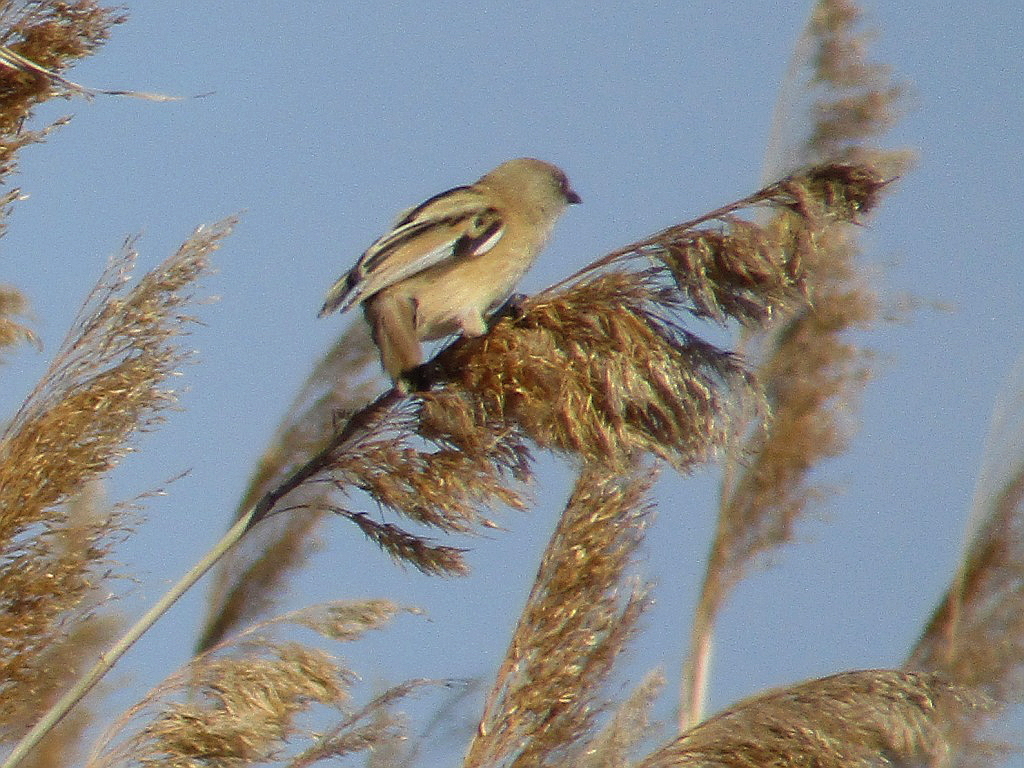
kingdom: Animalia
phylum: Chordata
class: Aves
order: Passeriformes
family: Panuridae
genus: Panurus
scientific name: Panurus biarmicus
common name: Bearded reedling
